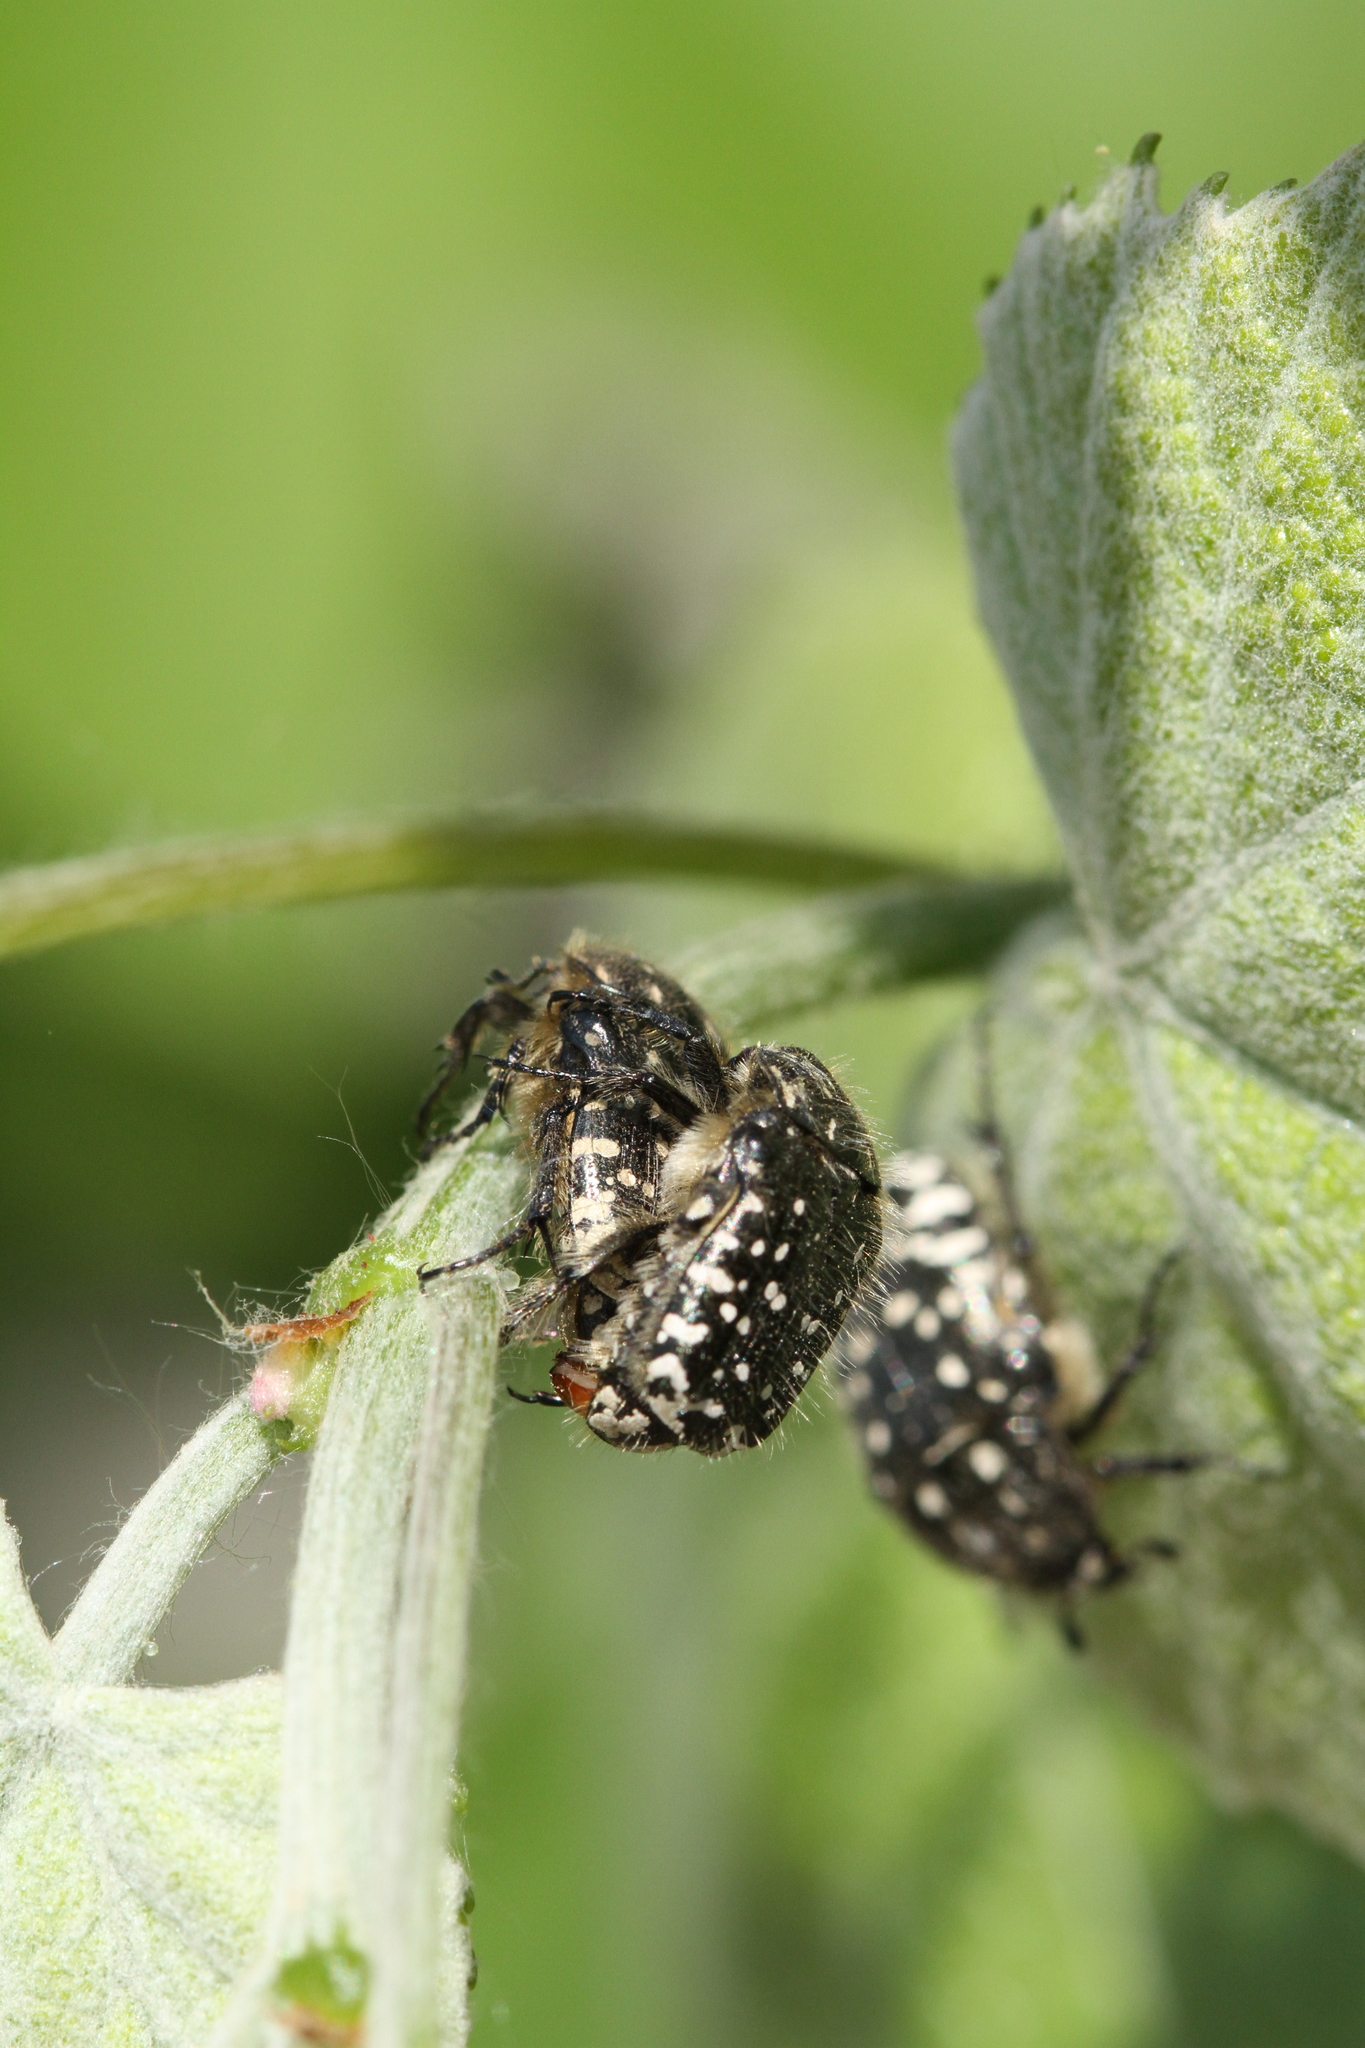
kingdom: Animalia
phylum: Arthropoda
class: Insecta
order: Coleoptera
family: Scarabaeidae
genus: Oxythyrea
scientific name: Oxythyrea funesta
